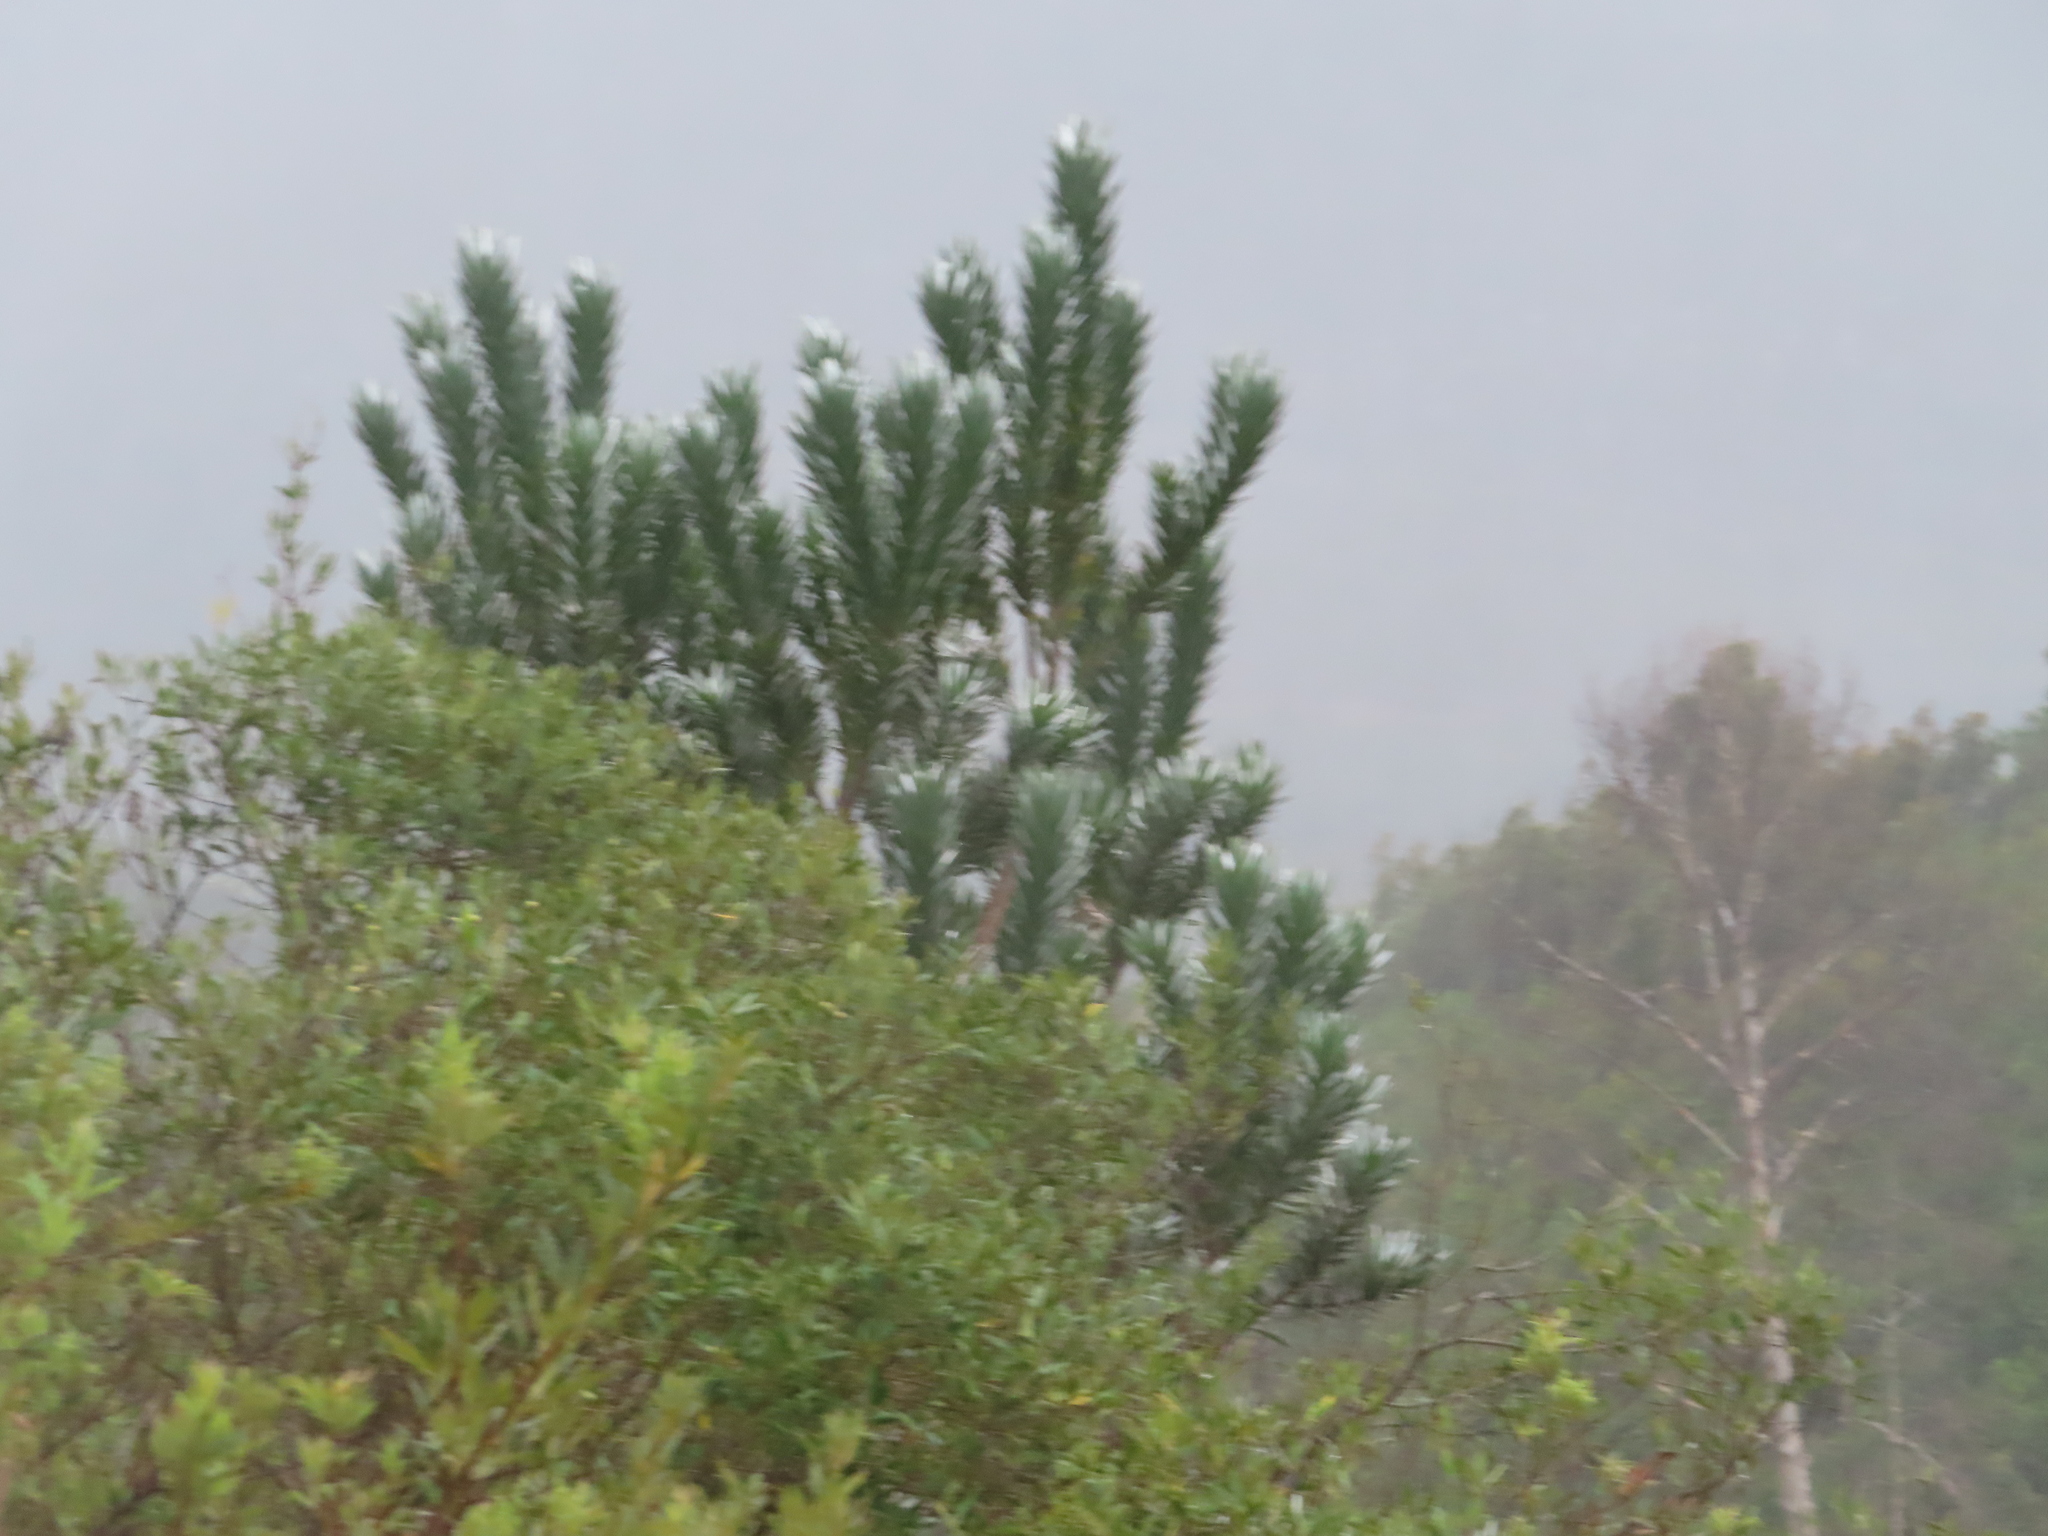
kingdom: Plantae
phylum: Tracheophyta
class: Magnoliopsida
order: Proteales
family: Proteaceae
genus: Leucadendron
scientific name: Leucadendron argenteum
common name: Cape silver tree
